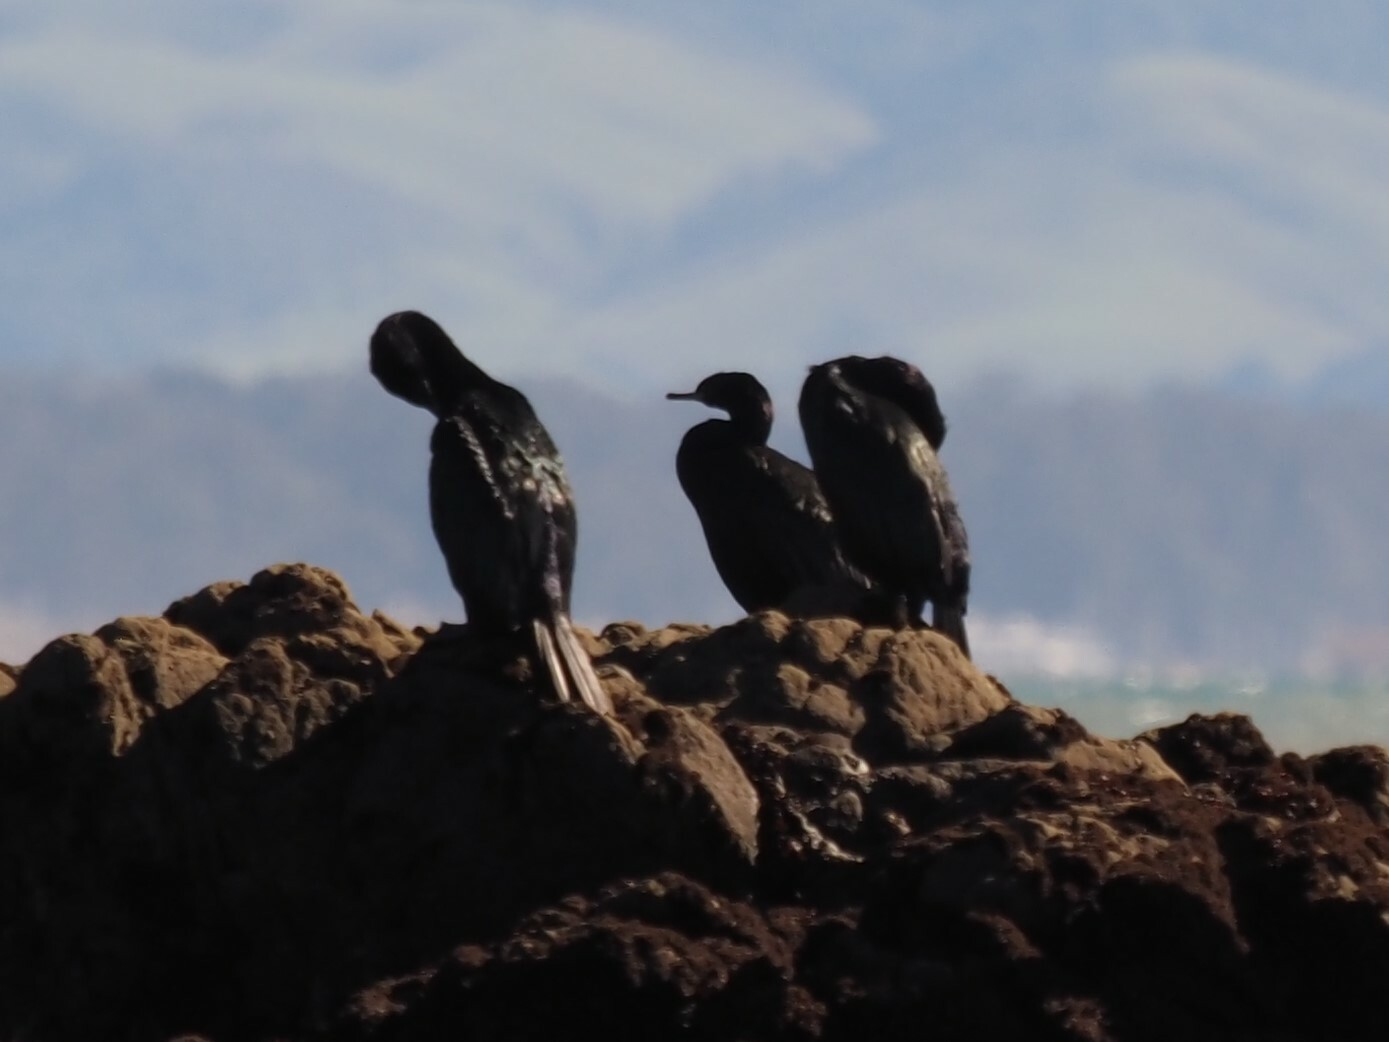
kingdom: Animalia
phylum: Chordata
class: Aves
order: Suliformes
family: Phalacrocoracidae
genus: Phalacrocorax
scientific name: Phalacrocorax pelagicus
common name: Pelagic cormorant
